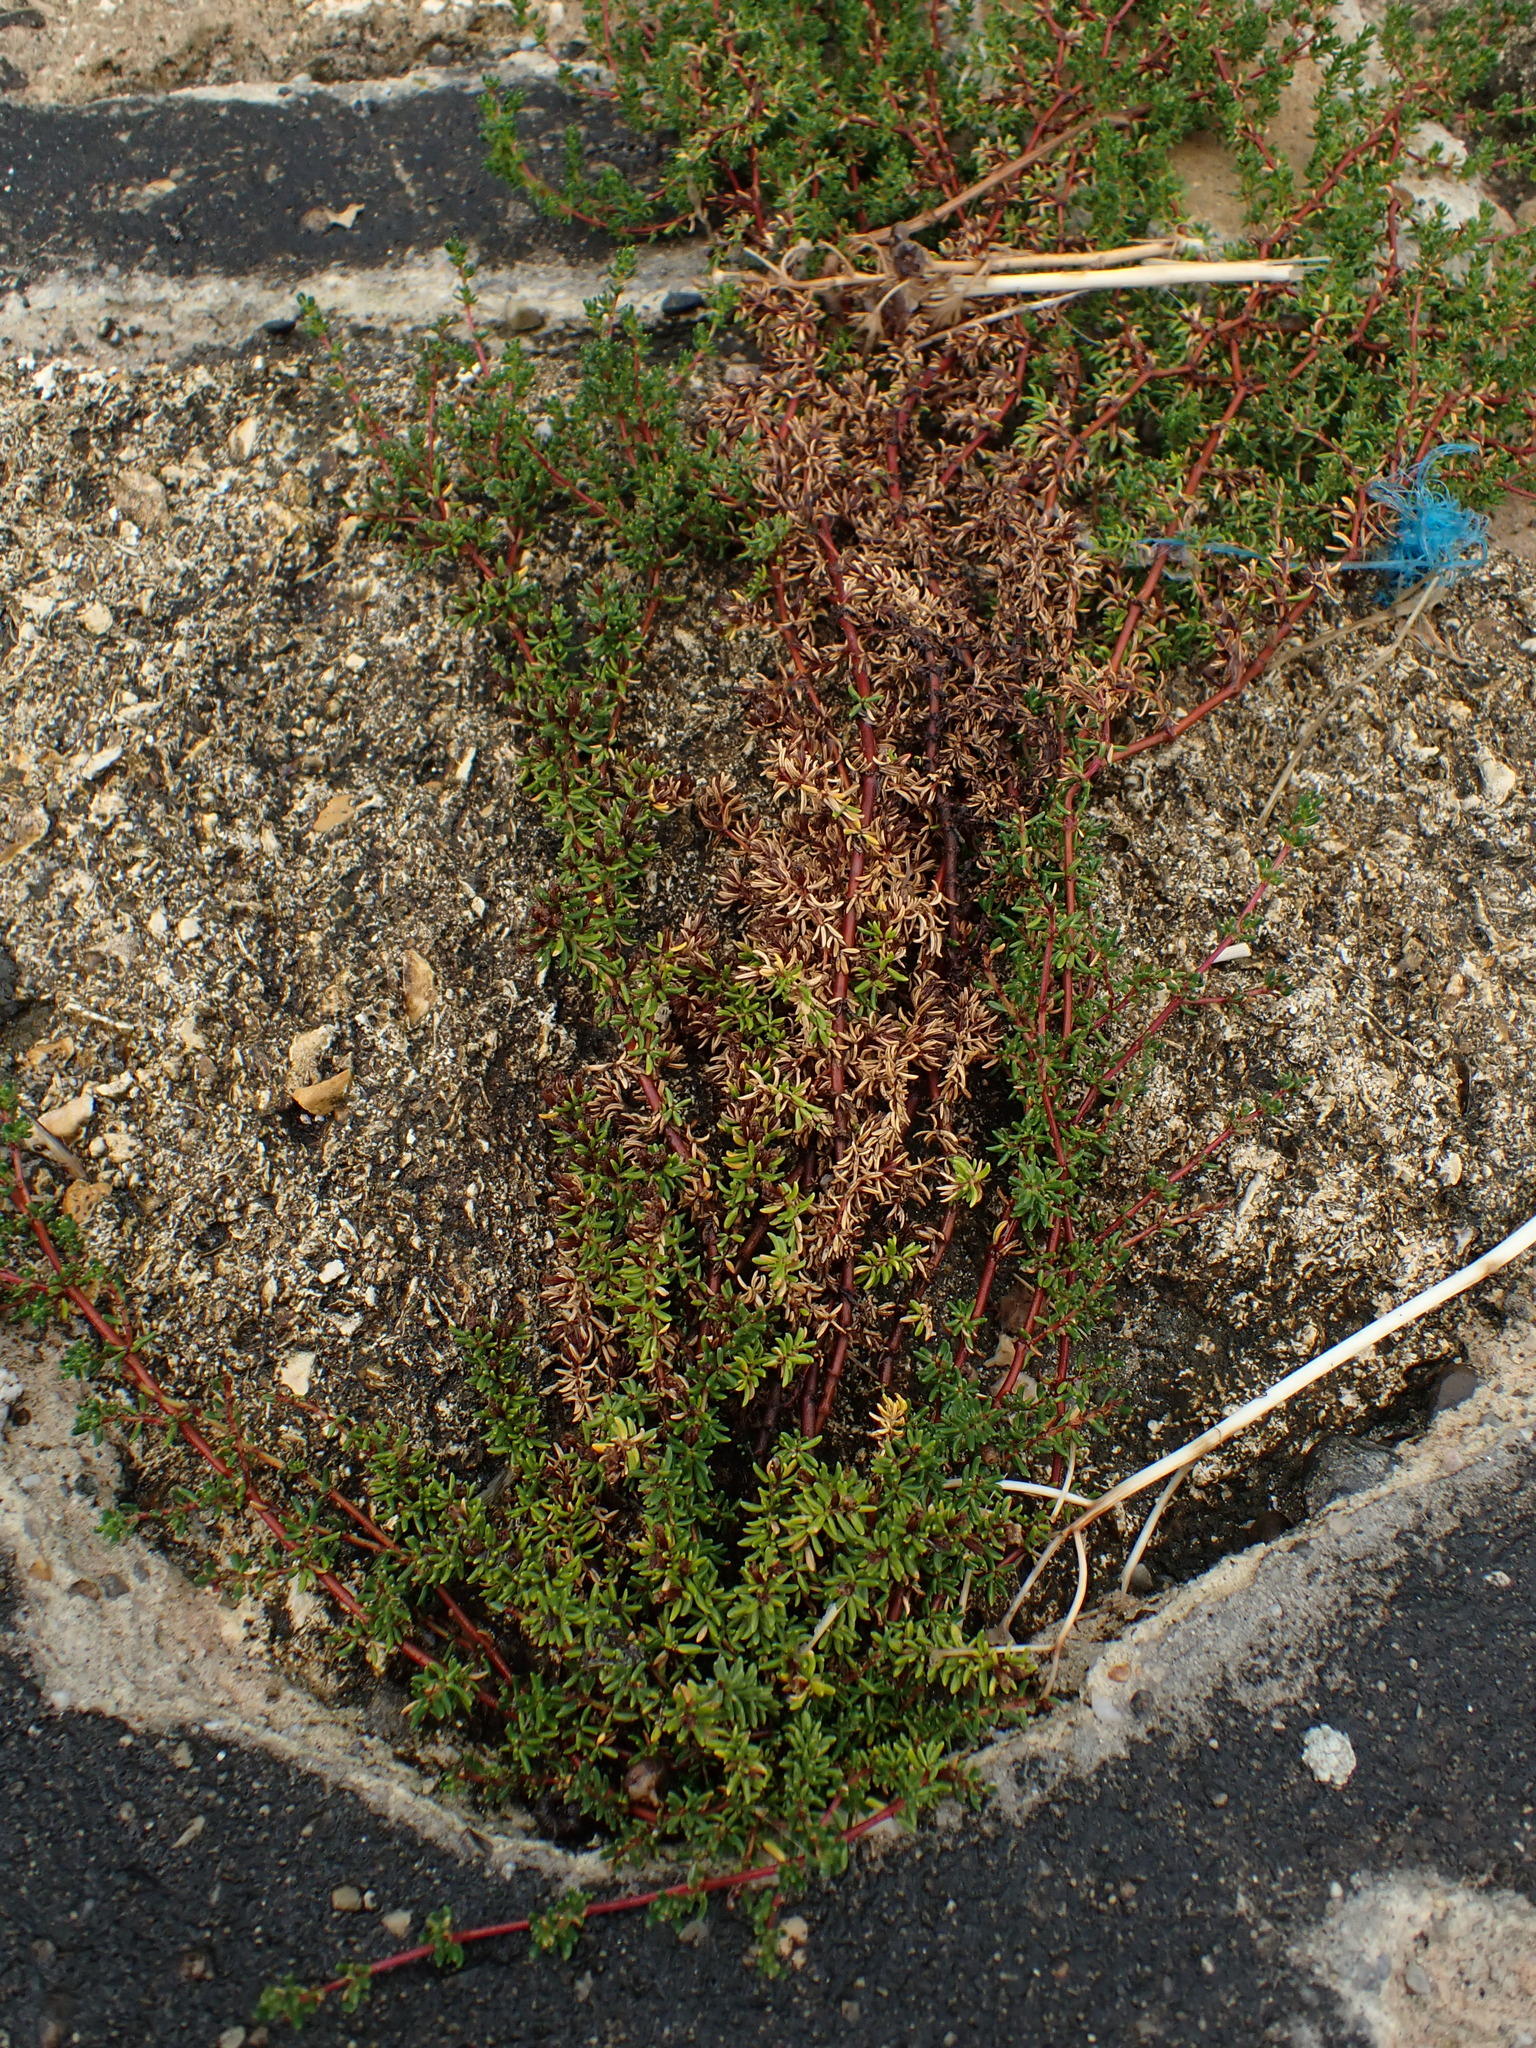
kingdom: Plantae
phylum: Tracheophyta
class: Magnoliopsida
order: Caryophyllales
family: Amaranthaceae
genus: Suaeda
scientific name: Suaeda vera
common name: Shrubby sea-blite
